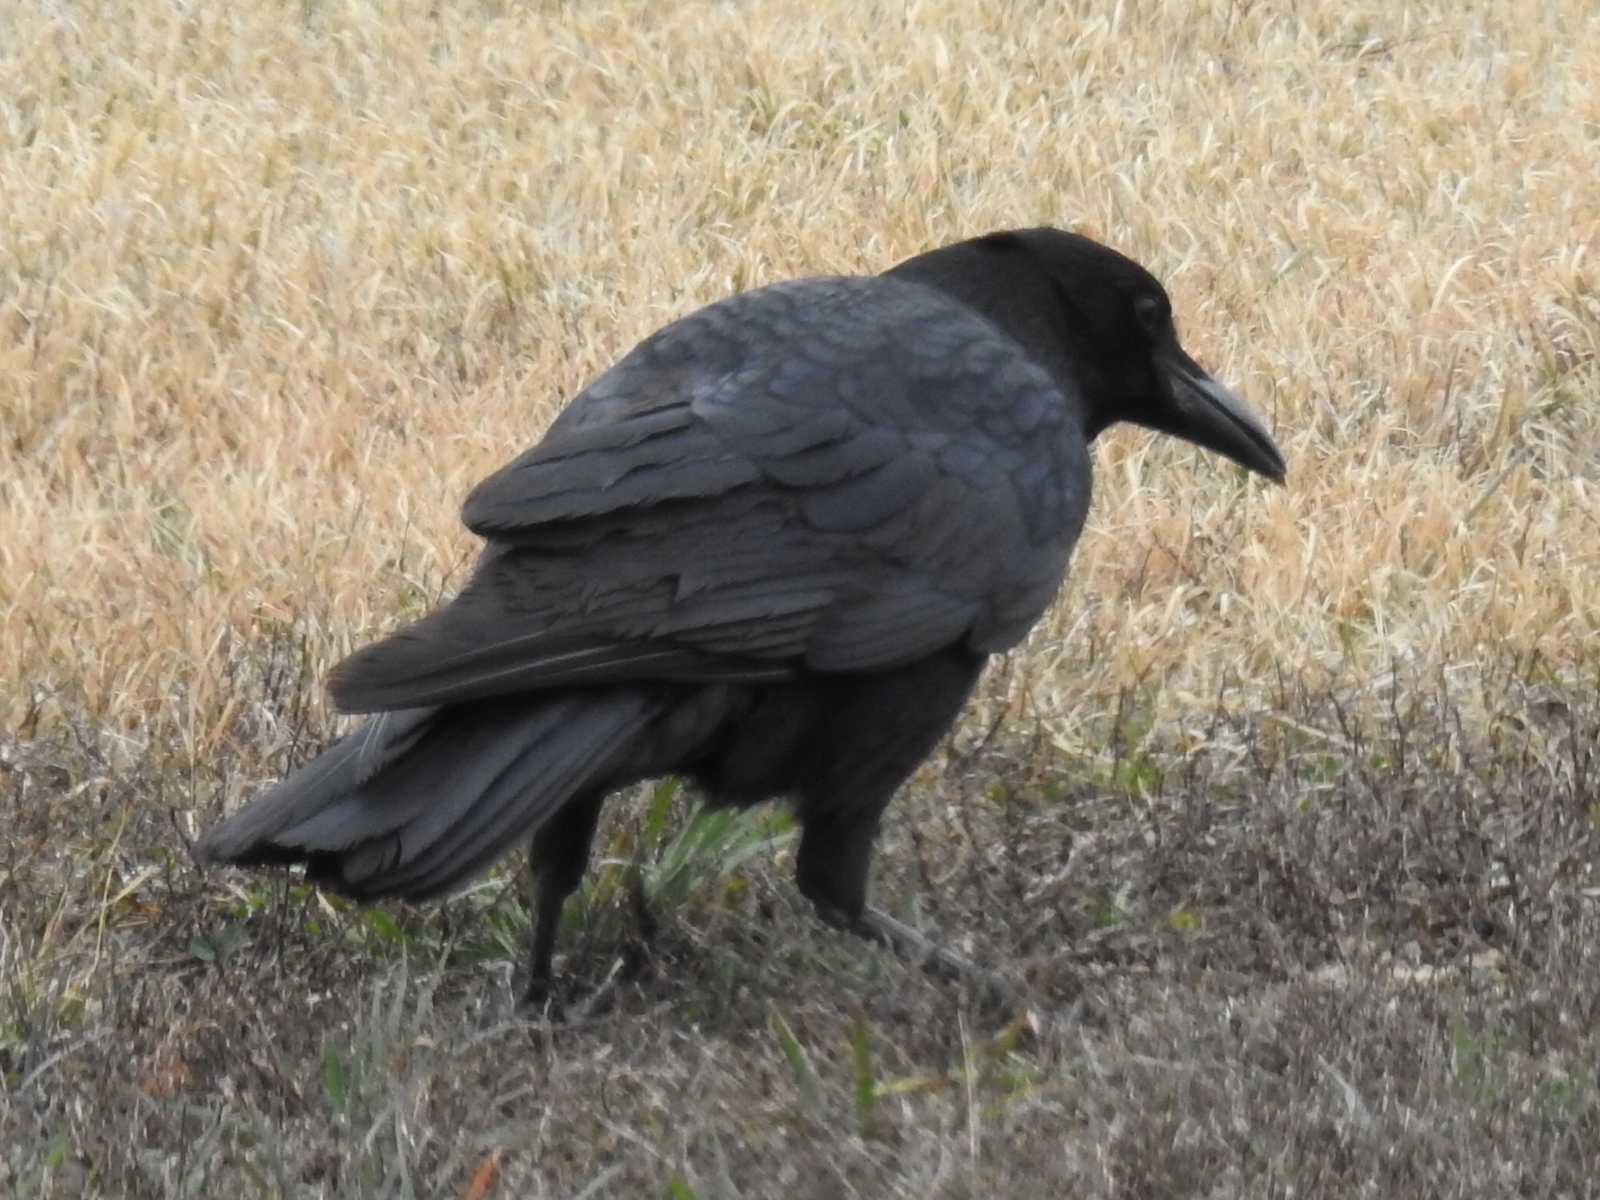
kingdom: Animalia
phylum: Chordata
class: Aves
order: Passeriformes
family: Corvidae
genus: Corvus
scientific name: Corvus brachyrhynchos
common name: American crow
